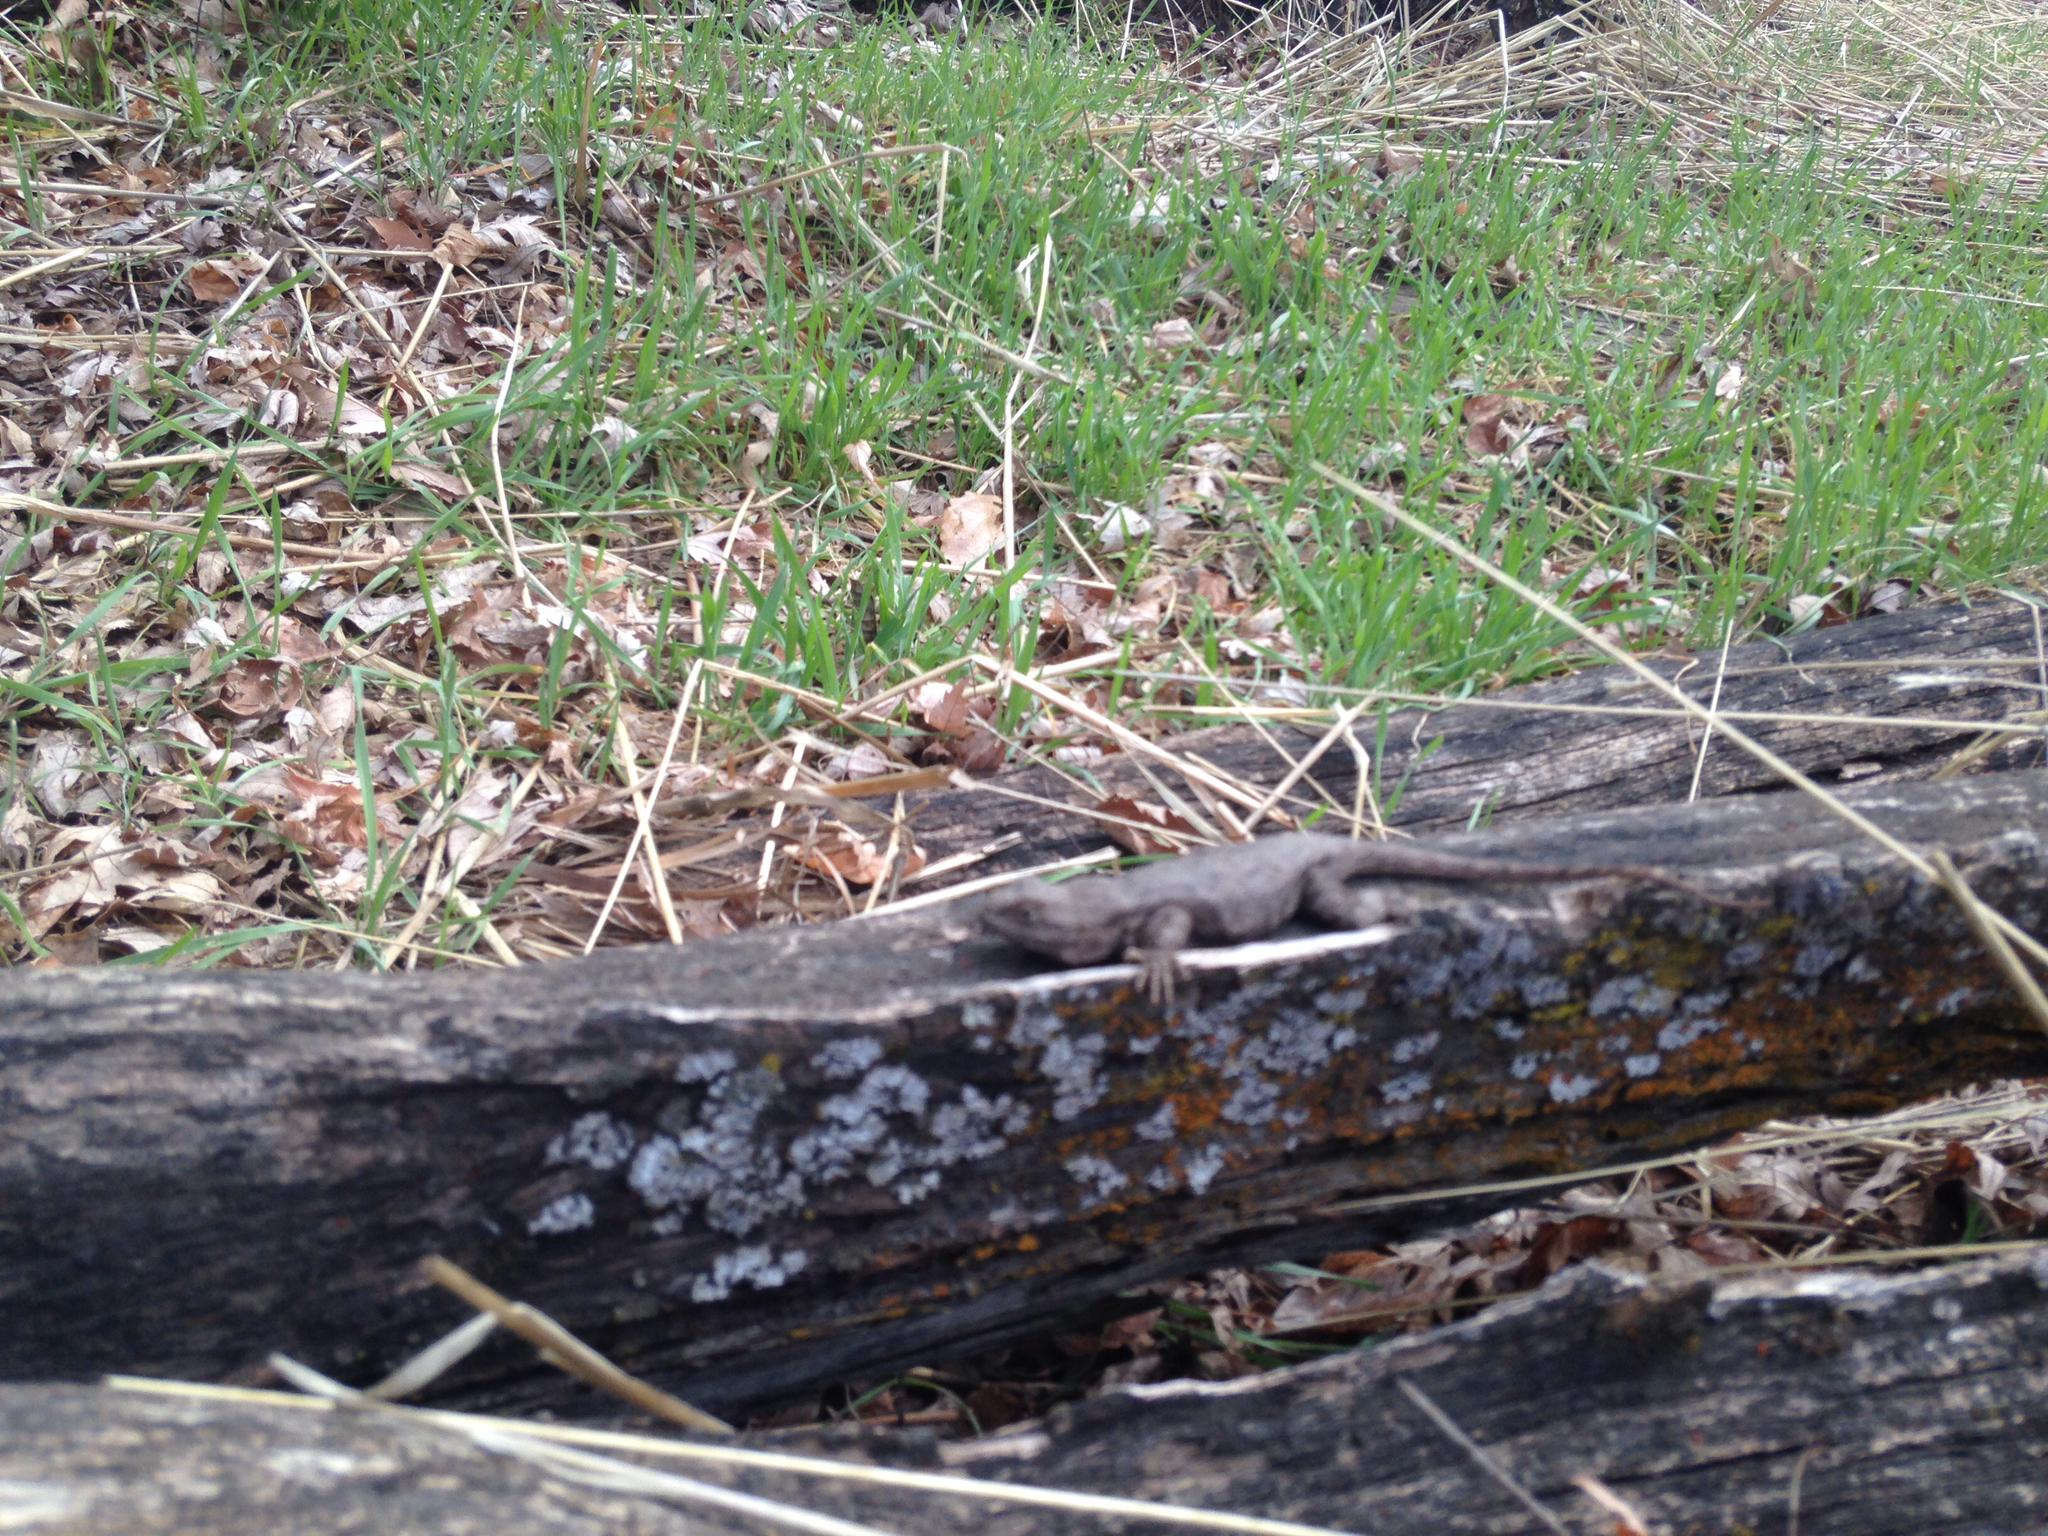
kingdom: Animalia
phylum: Chordata
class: Squamata
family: Phrynosomatidae
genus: Sceloporus
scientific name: Sceloporus occidentalis
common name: Western fence lizard
